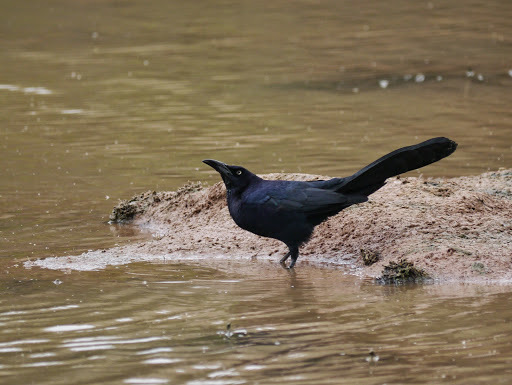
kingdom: Animalia
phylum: Chordata
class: Aves
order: Passeriformes
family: Icteridae
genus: Quiscalus
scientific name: Quiscalus mexicanus
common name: Great-tailed grackle
